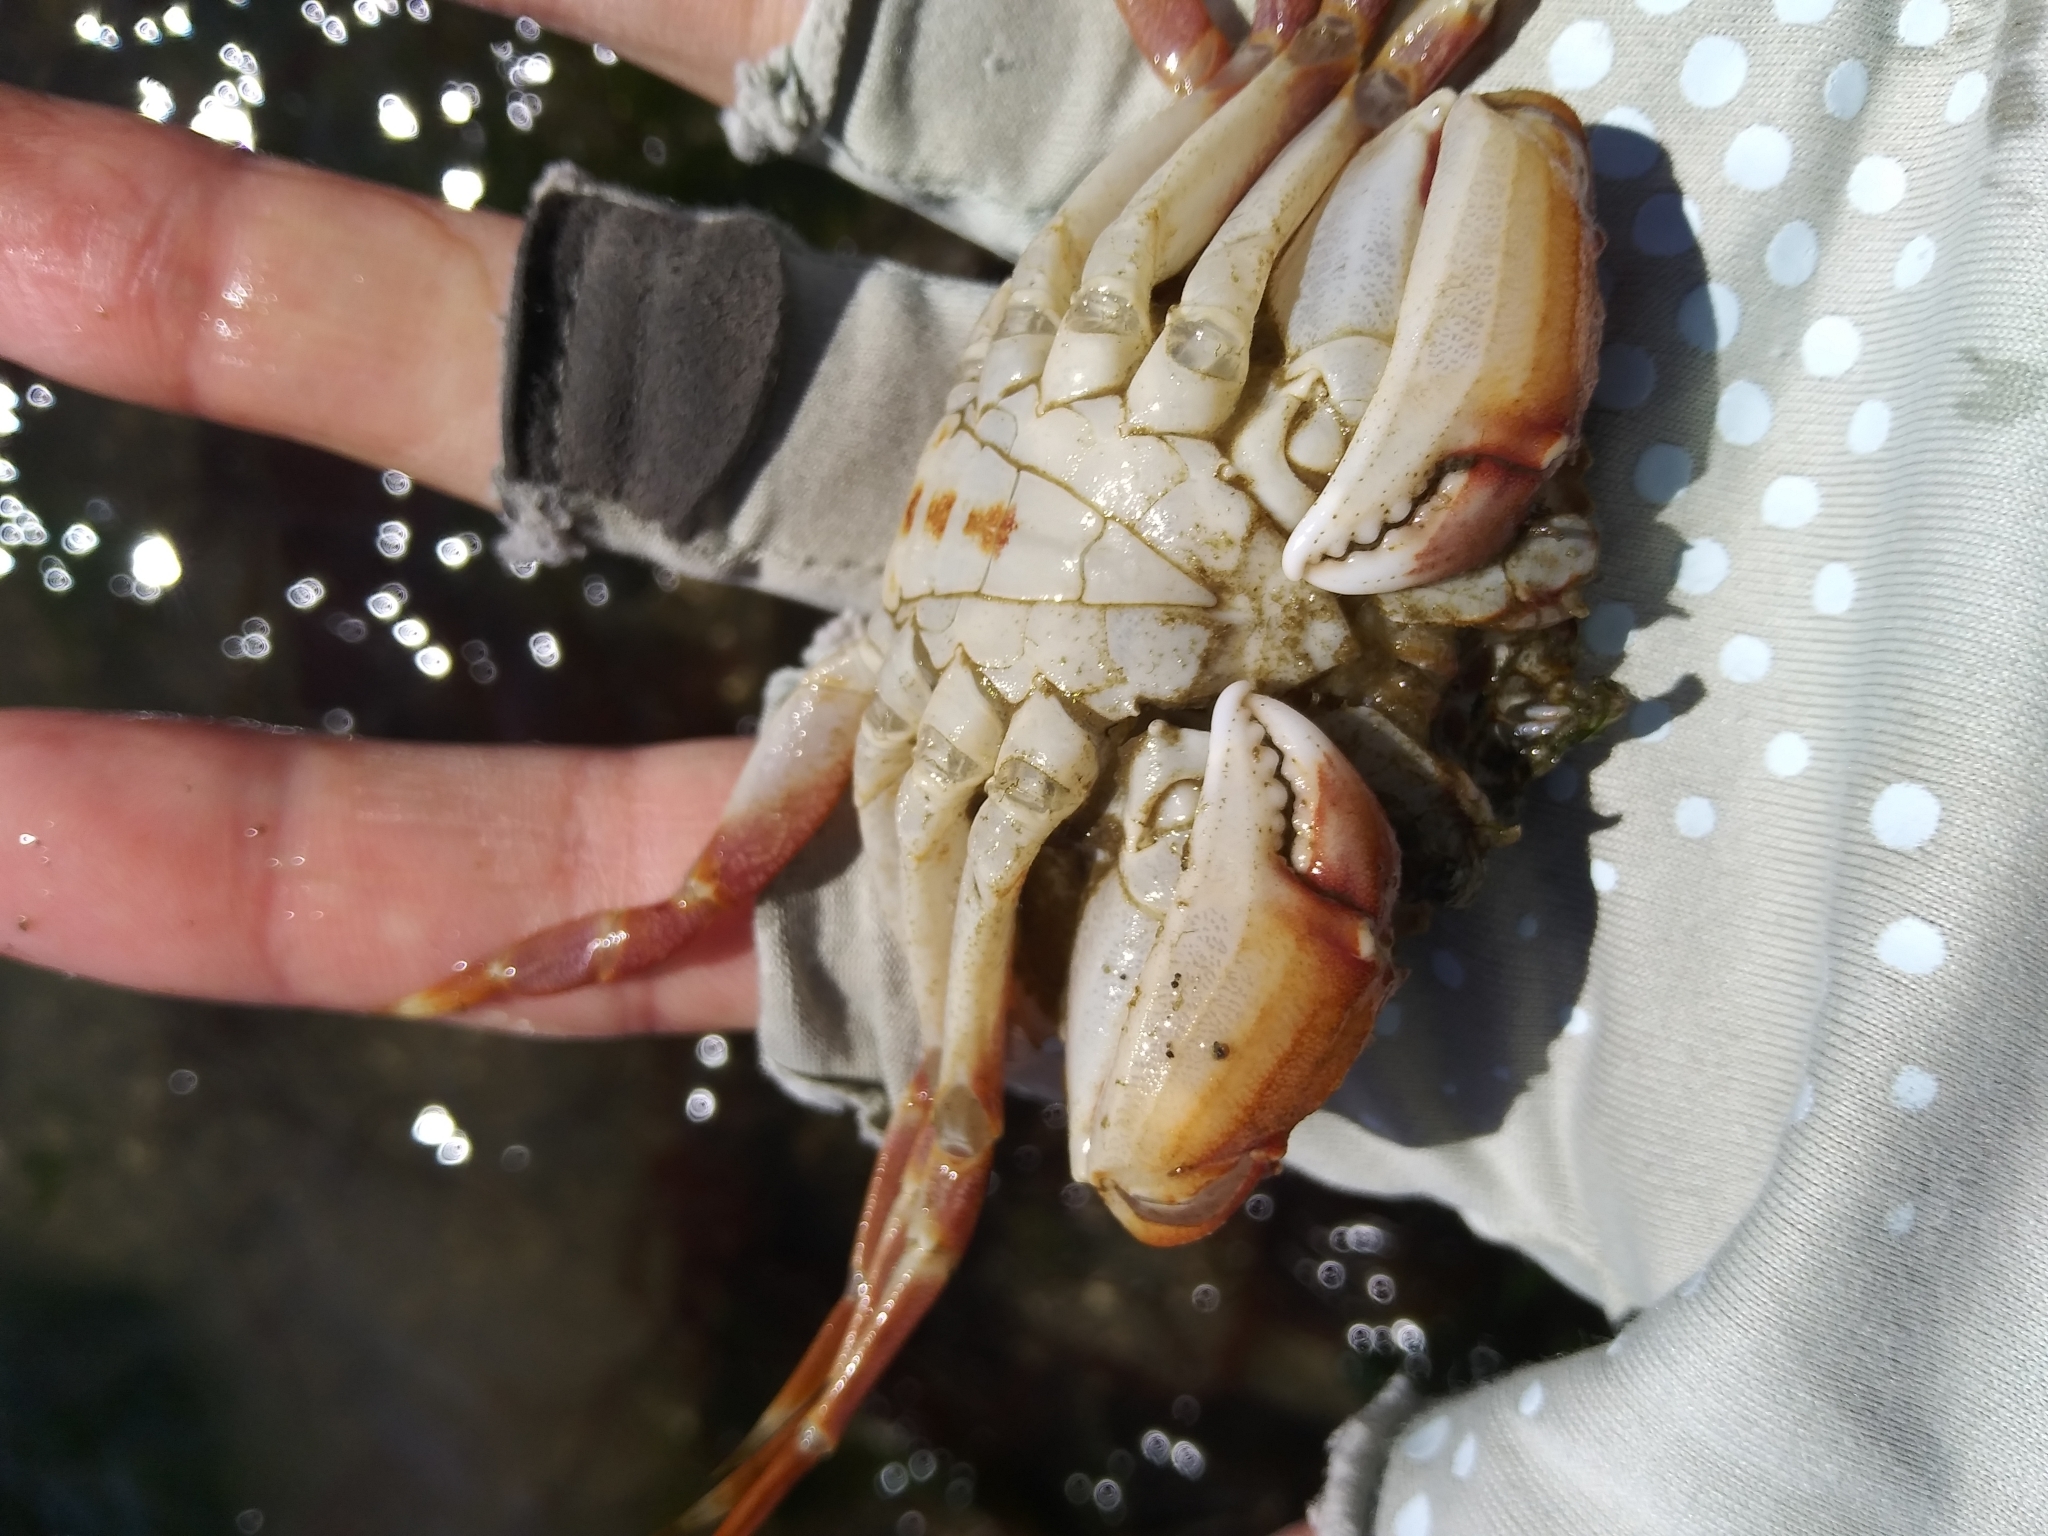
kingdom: Animalia
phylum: Arthropoda
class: Malacostraca
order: Decapoda
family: Cancridae
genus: Metacarcinus
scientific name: Metacarcinus gracilis
